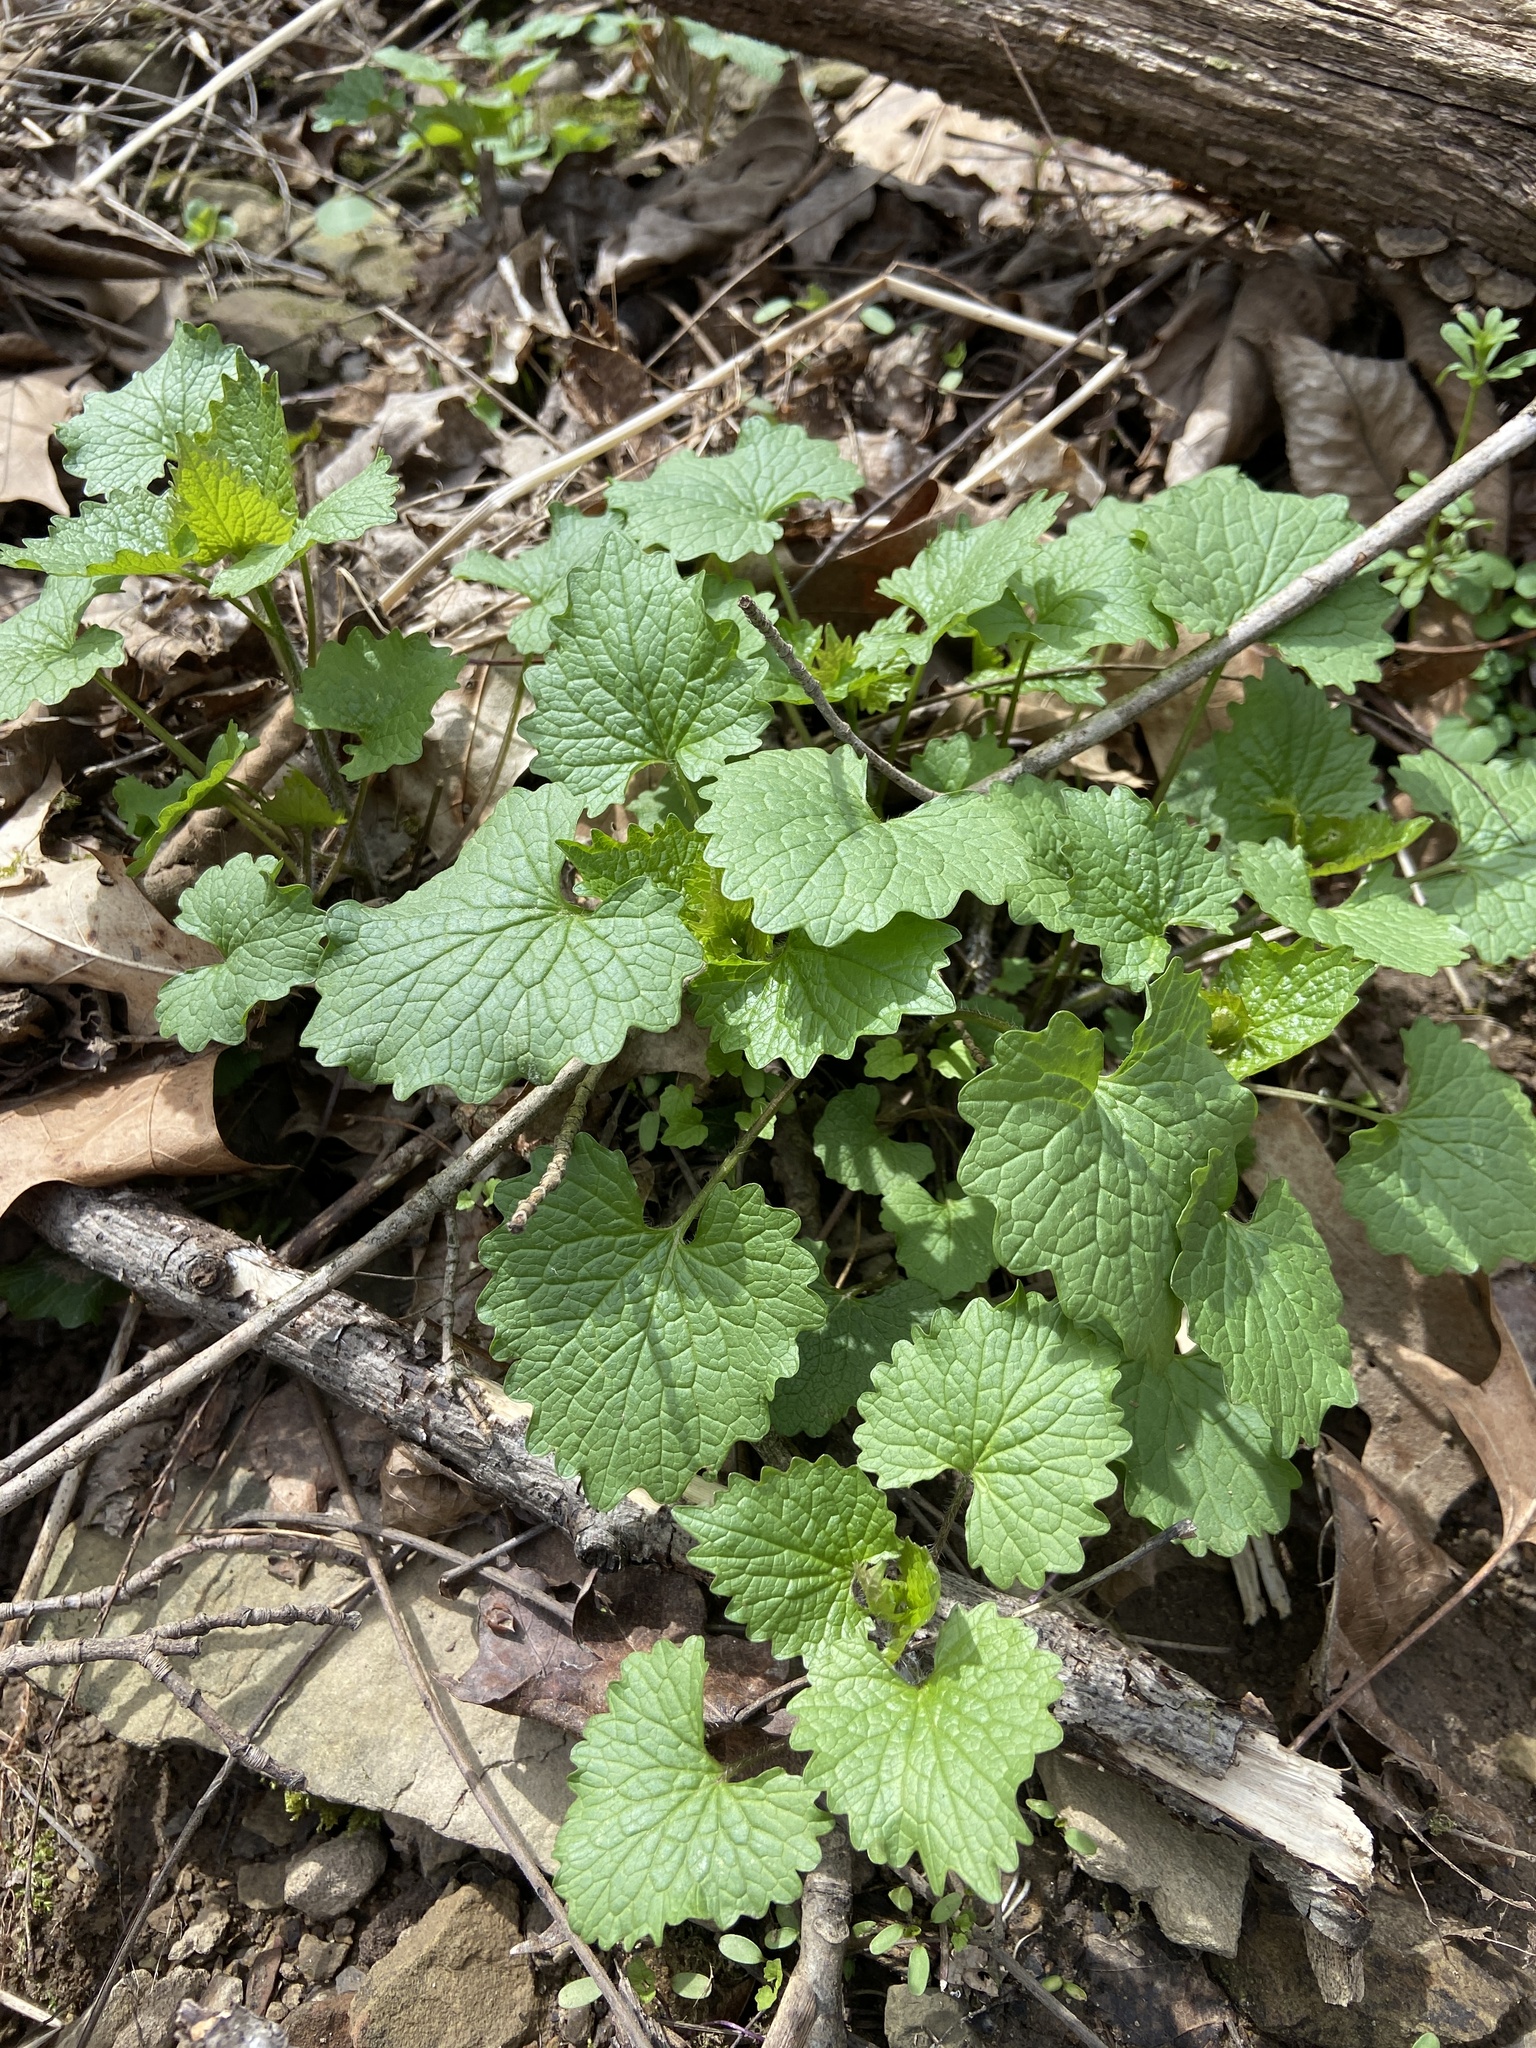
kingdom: Plantae
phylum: Tracheophyta
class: Magnoliopsida
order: Brassicales
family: Brassicaceae
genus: Alliaria
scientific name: Alliaria petiolata
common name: Garlic mustard
